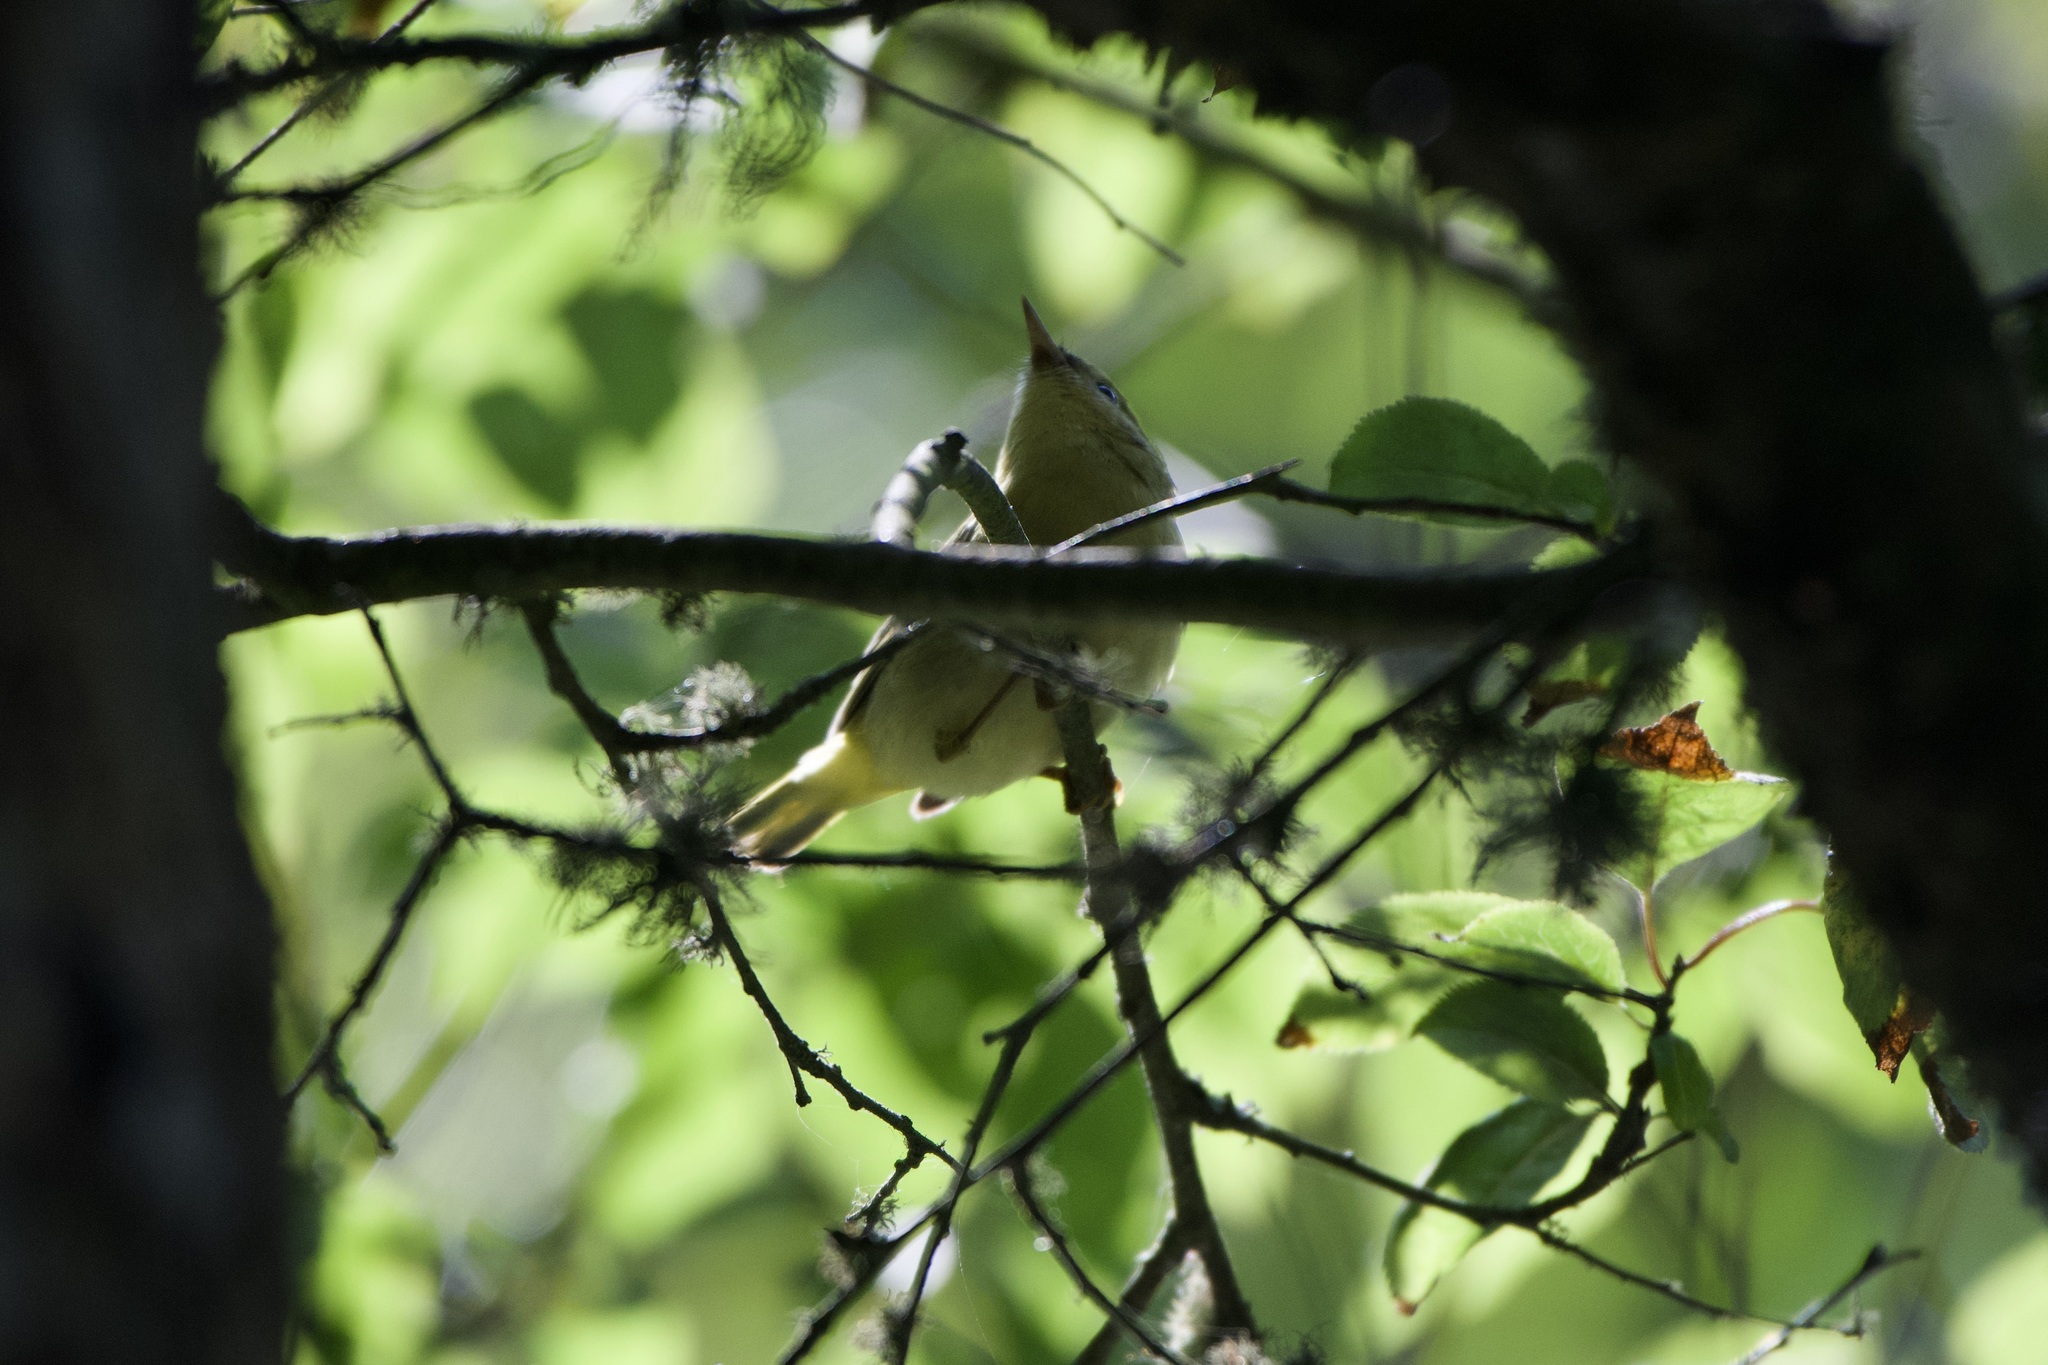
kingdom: Animalia
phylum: Chordata
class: Aves
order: Passeriformes
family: Parulidae
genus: Setophaga
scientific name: Setophaga petechia
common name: Yellow warbler
